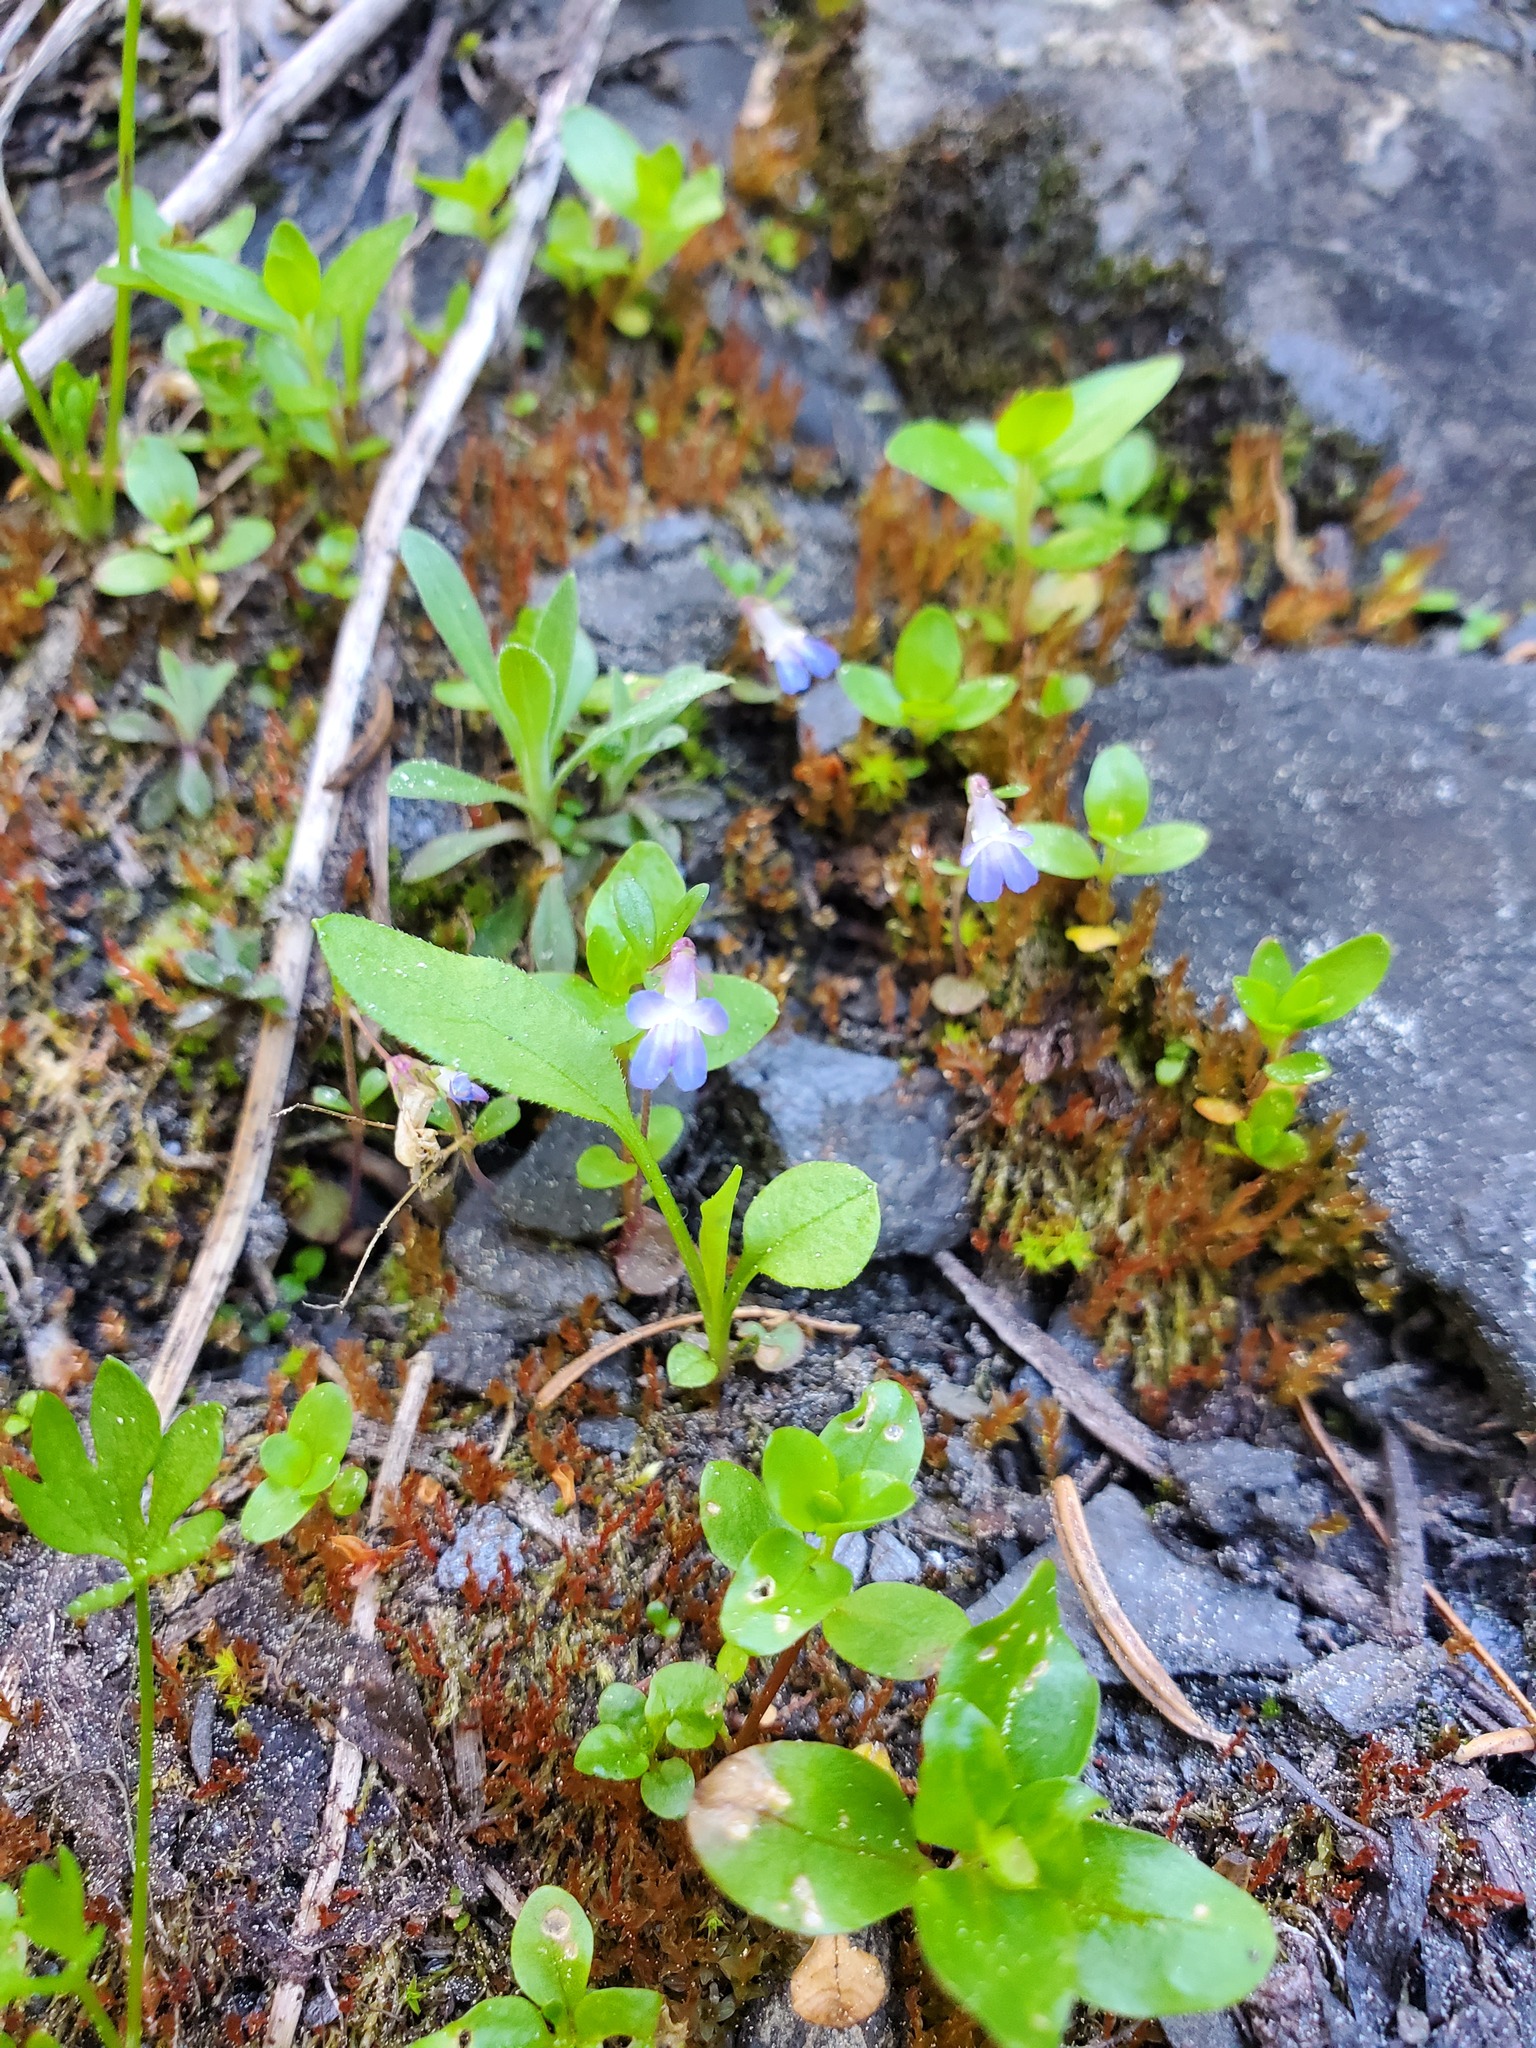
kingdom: Plantae
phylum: Tracheophyta
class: Magnoliopsida
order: Lamiales
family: Plantaginaceae
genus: Collinsia
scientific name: Collinsia parviflora
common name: Blue-lips
